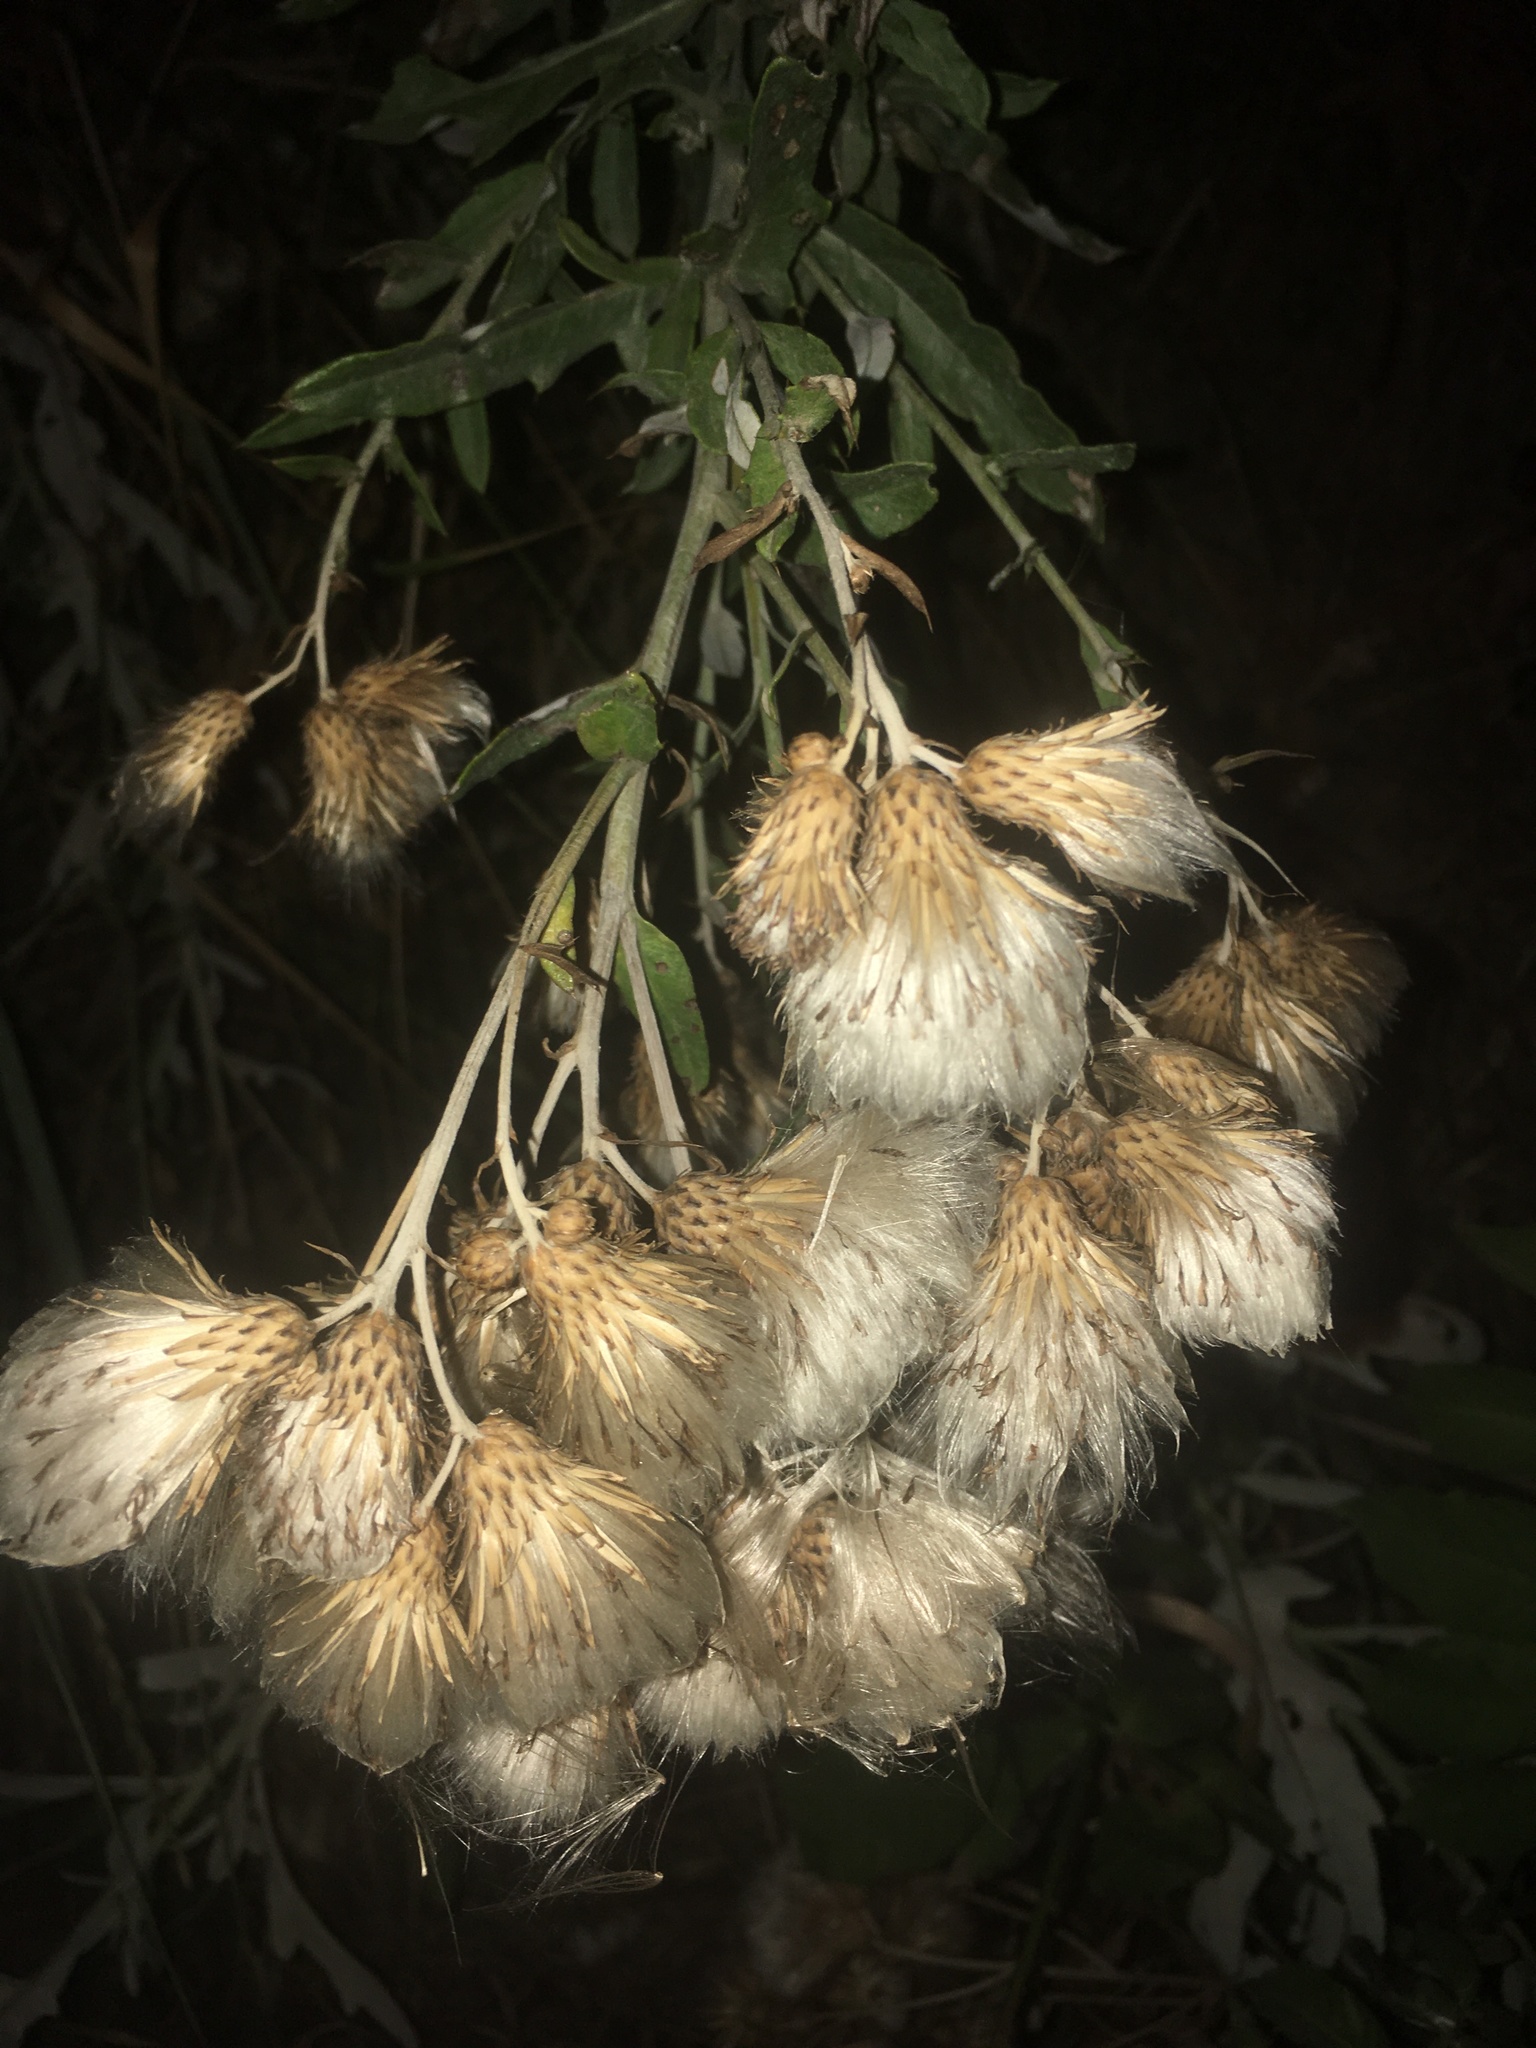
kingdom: Plantae
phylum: Tracheophyta
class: Magnoliopsida
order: Asterales
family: Asteraceae
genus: Cirsium
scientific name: Cirsium arvense
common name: Creeping thistle
